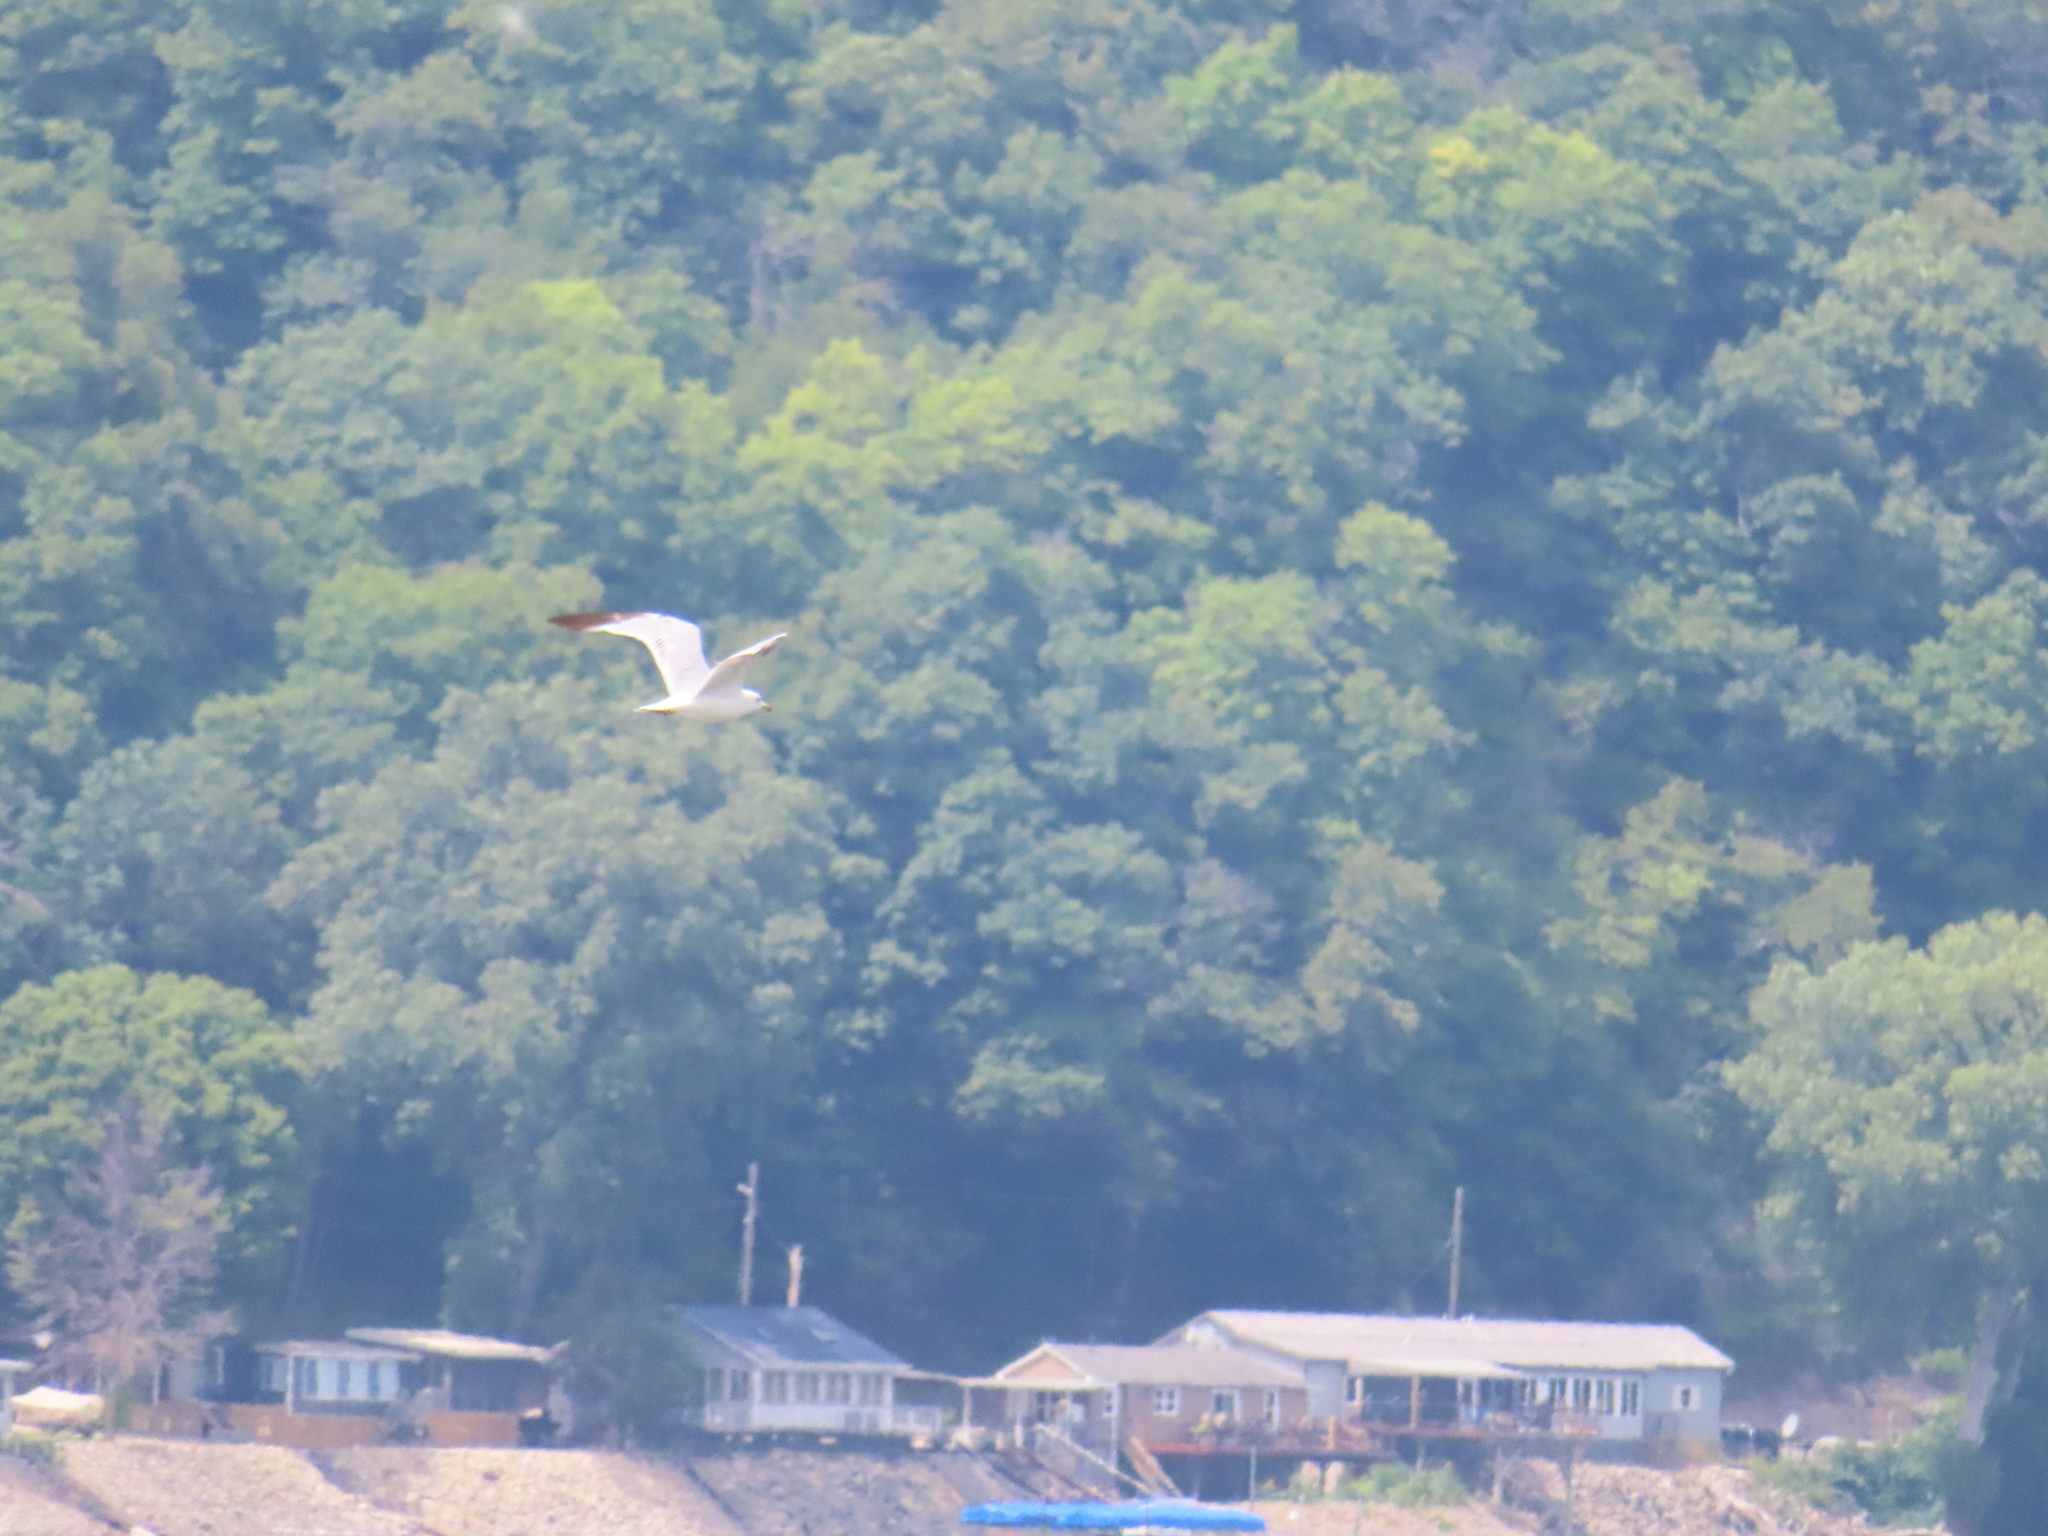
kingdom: Animalia
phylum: Chordata
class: Aves
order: Charadriiformes
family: Laridae
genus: Larus
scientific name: Larus delawarensis
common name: Ring-billed gull
